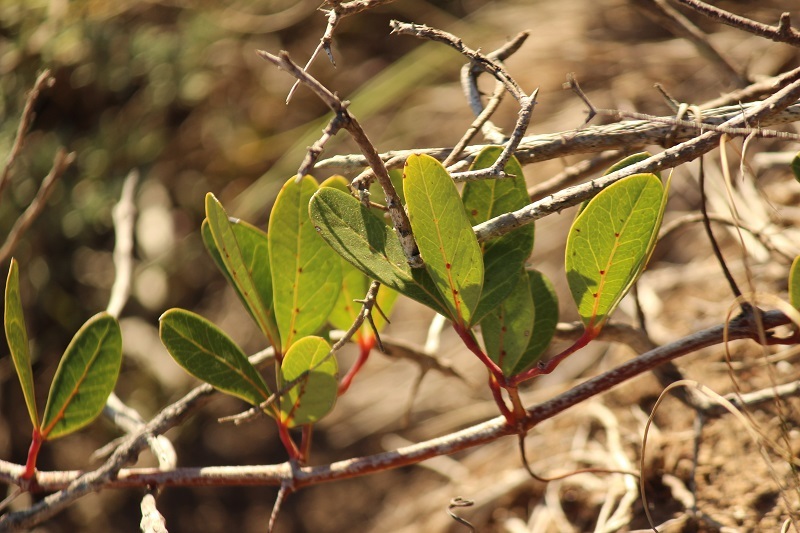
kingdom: Plantae
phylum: Tracheophyta
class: Magnoliopsida
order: Vitales
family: Vitaceae
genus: Rhoicissus
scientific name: Rhoicissus digitata
